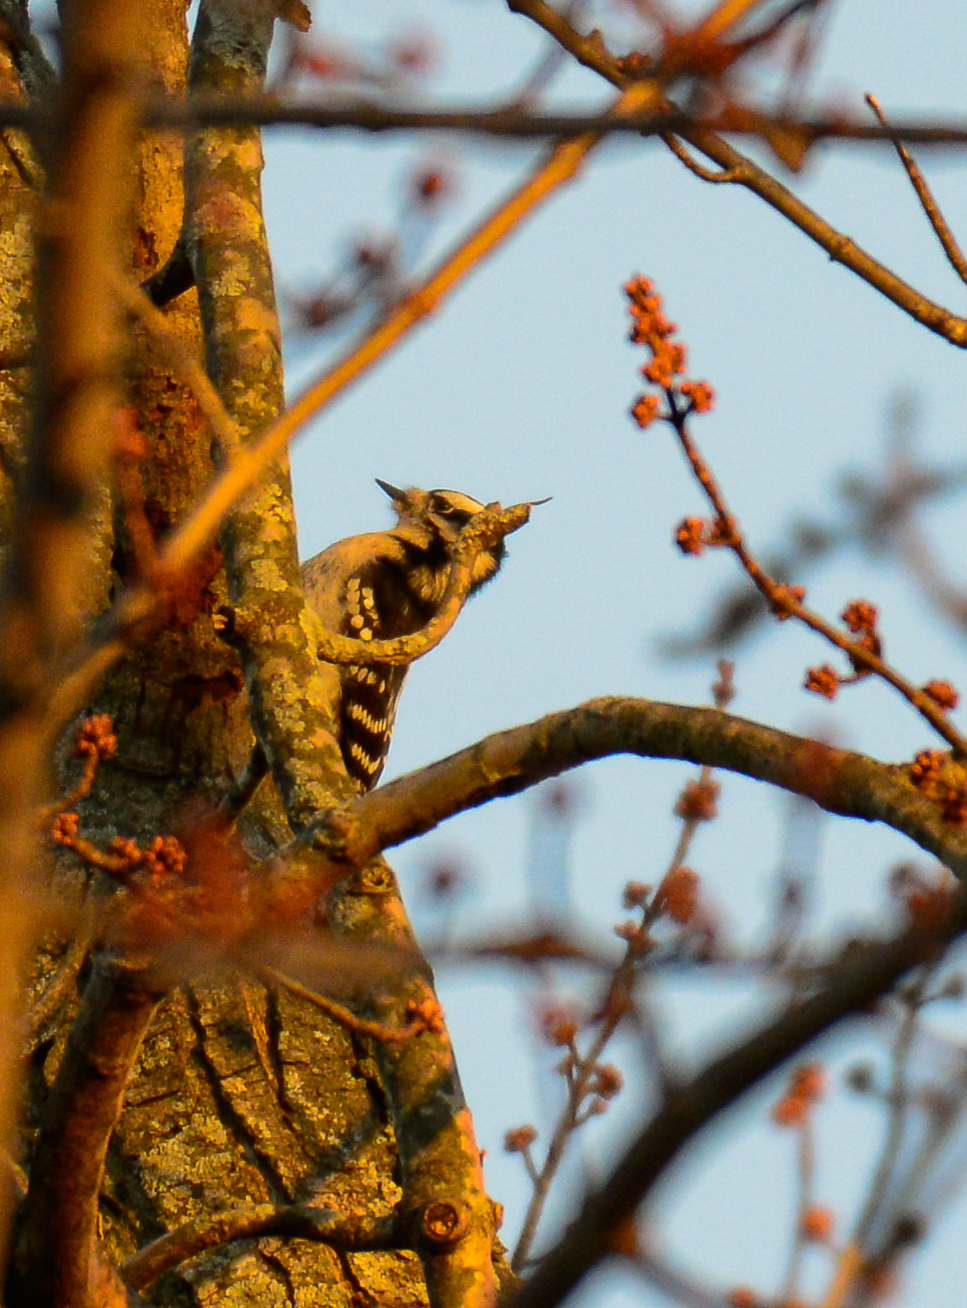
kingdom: Animalia
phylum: Chordata
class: Aves
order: Piciformes
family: Picidae
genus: Dryobates
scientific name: Dryobates pubescens
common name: Downy woodpecker
